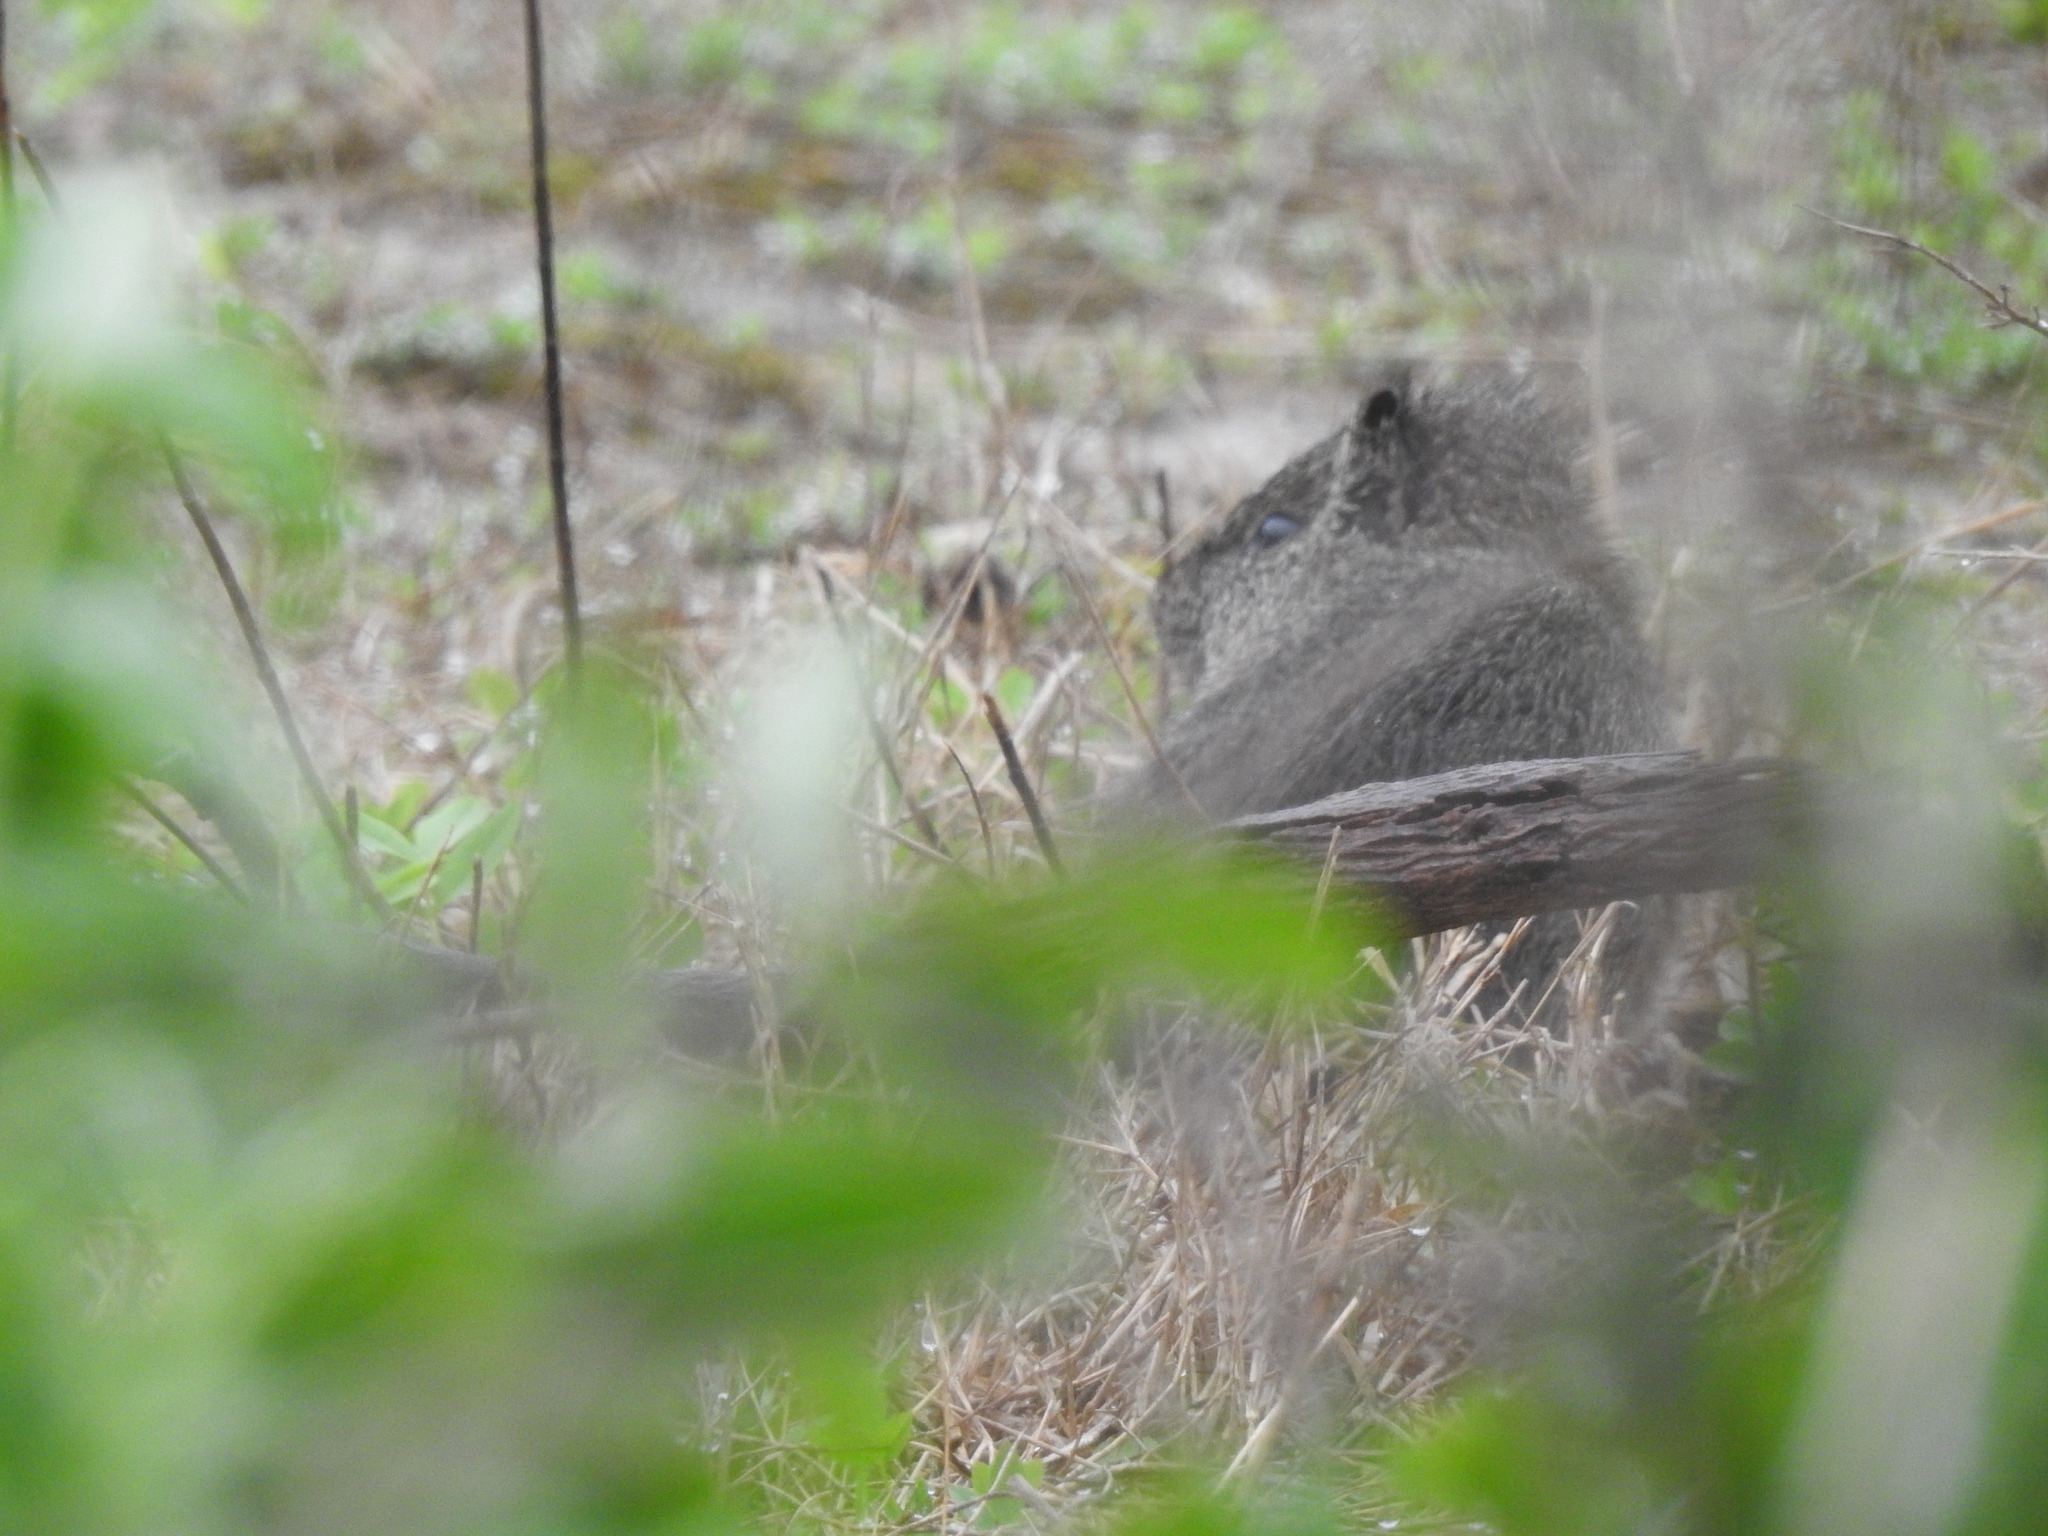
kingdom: Animalia
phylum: Chordata
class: Mammalia
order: Rodentia
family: Caviidae
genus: Cavia
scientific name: Cavia aperea
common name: Brazilian guinea pig
